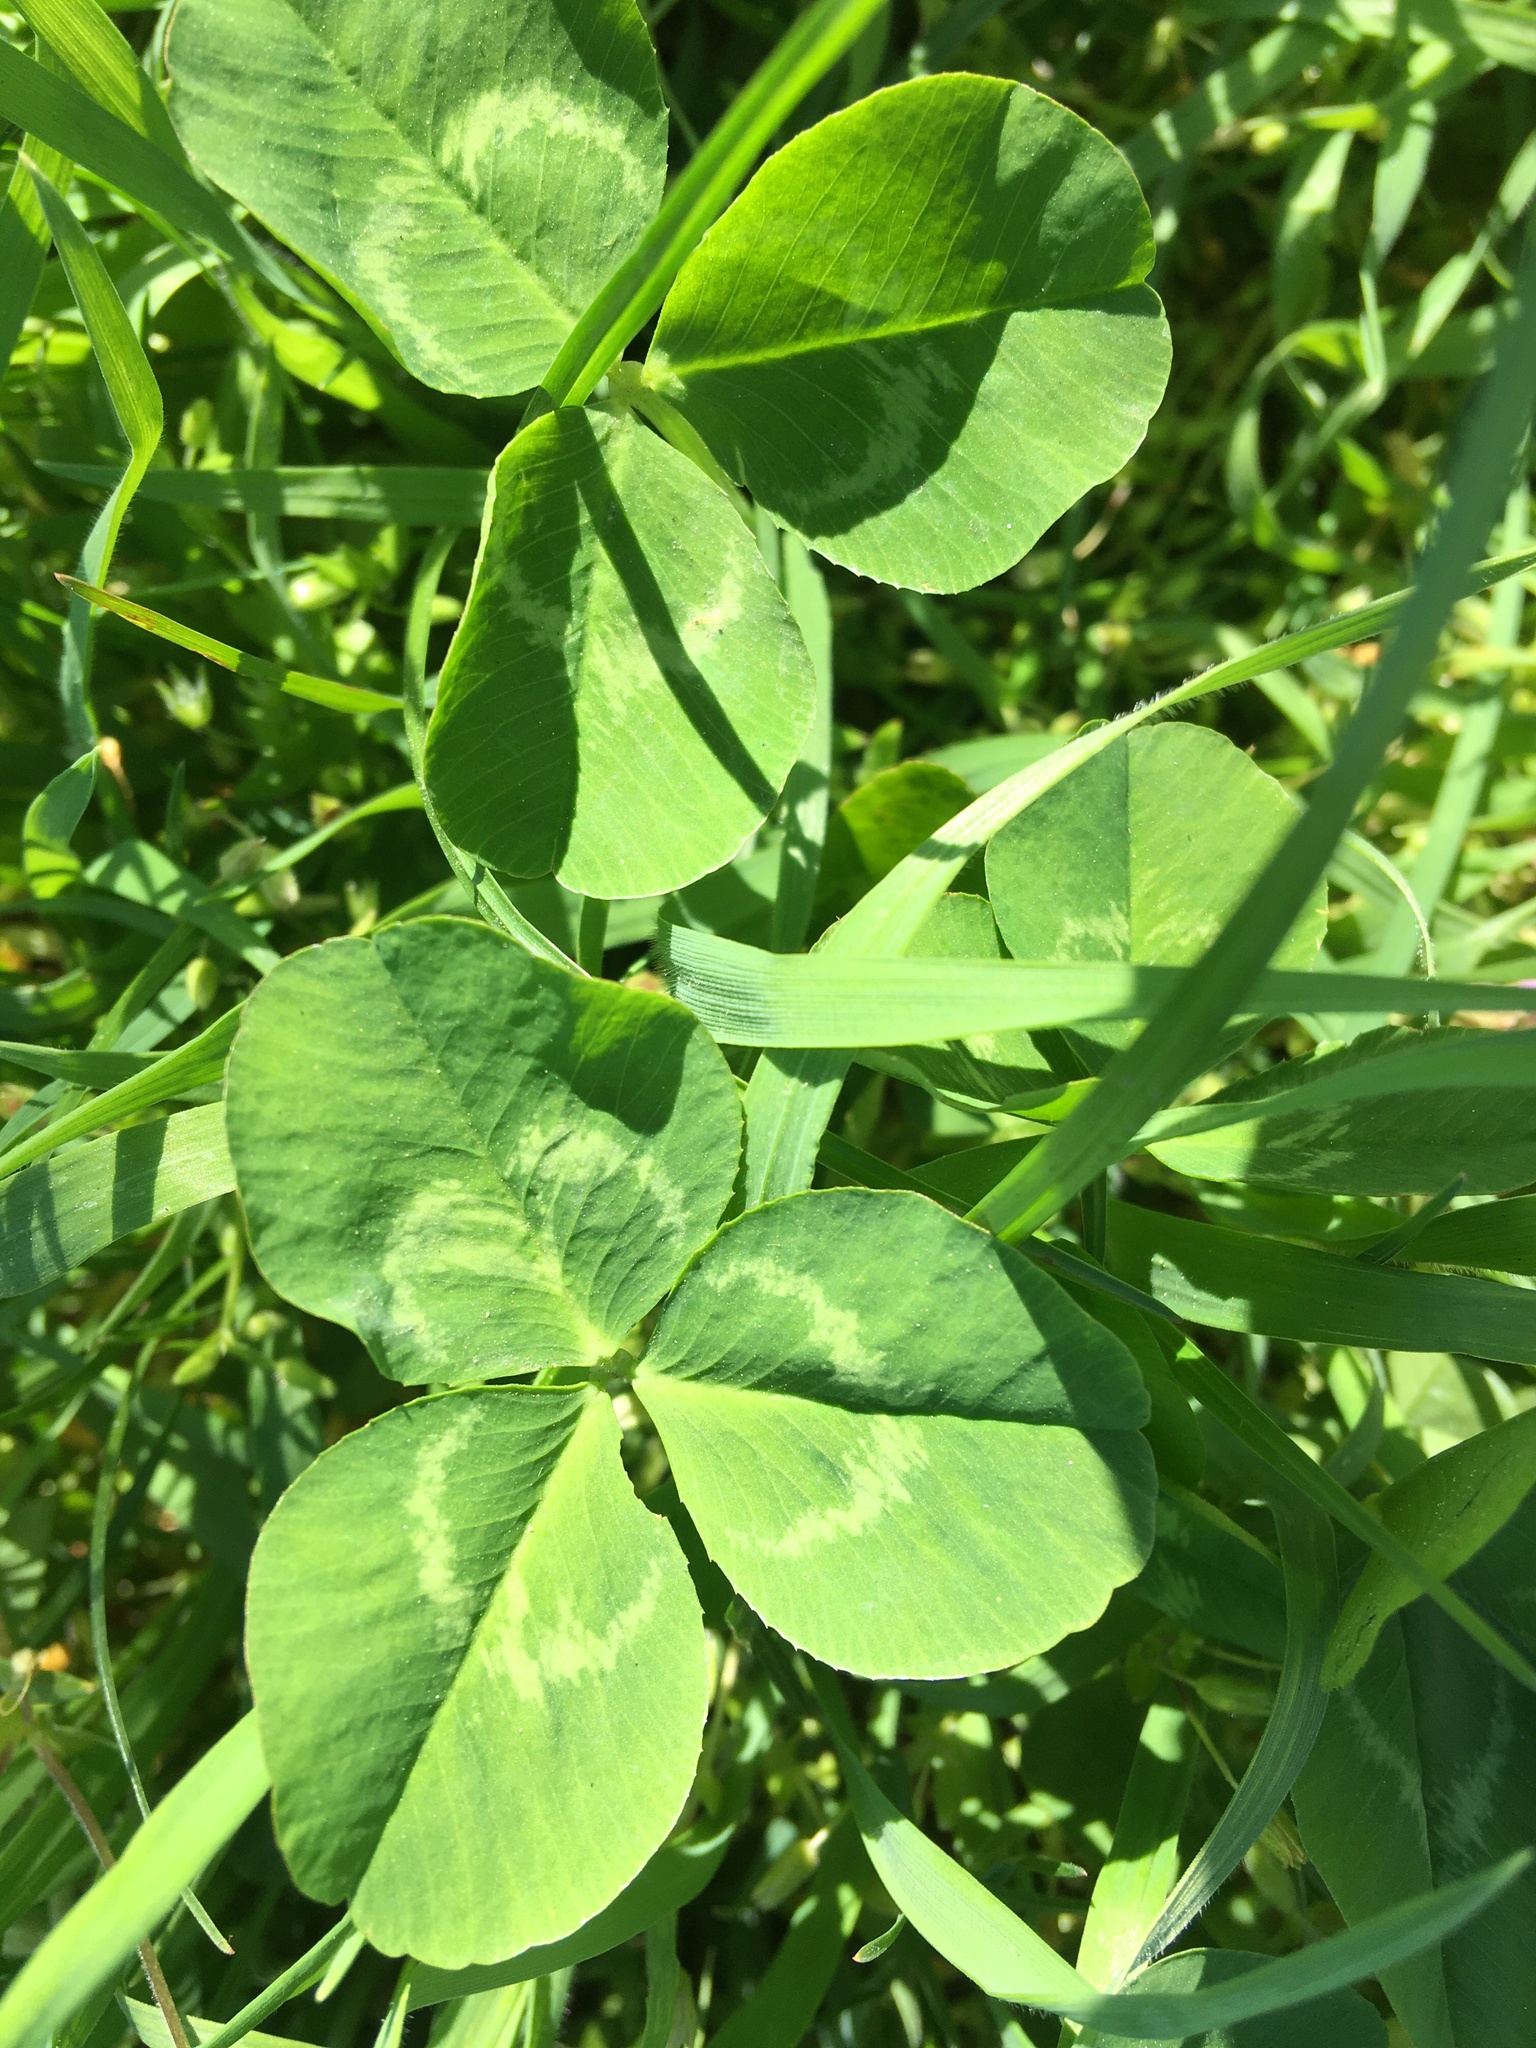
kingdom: Plantae
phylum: Tracheophyta
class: Magnoliopsida
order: Fabales
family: Fabaceae
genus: Trifolium
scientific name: Trifolium repens
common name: White clover
